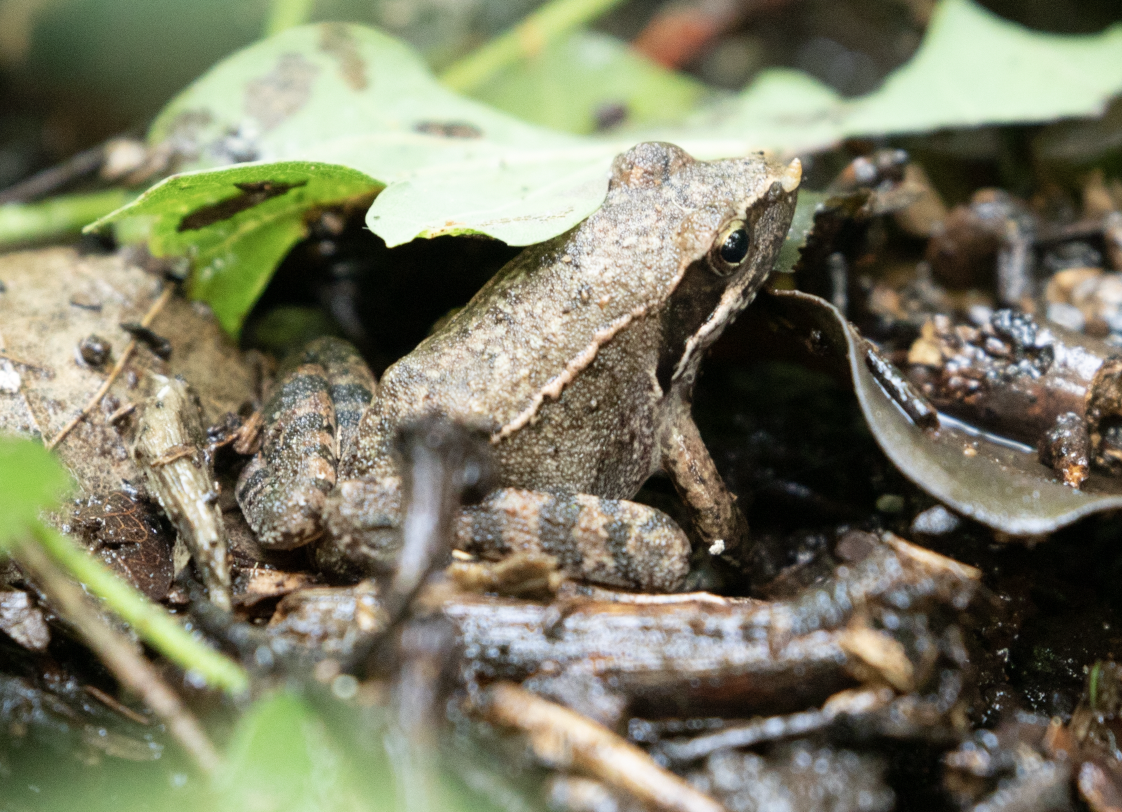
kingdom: Animalia
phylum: Chordata
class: Amphibia
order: Anura
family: Ranidae
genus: Rana
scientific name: Rana latastei
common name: Italian agile frog
